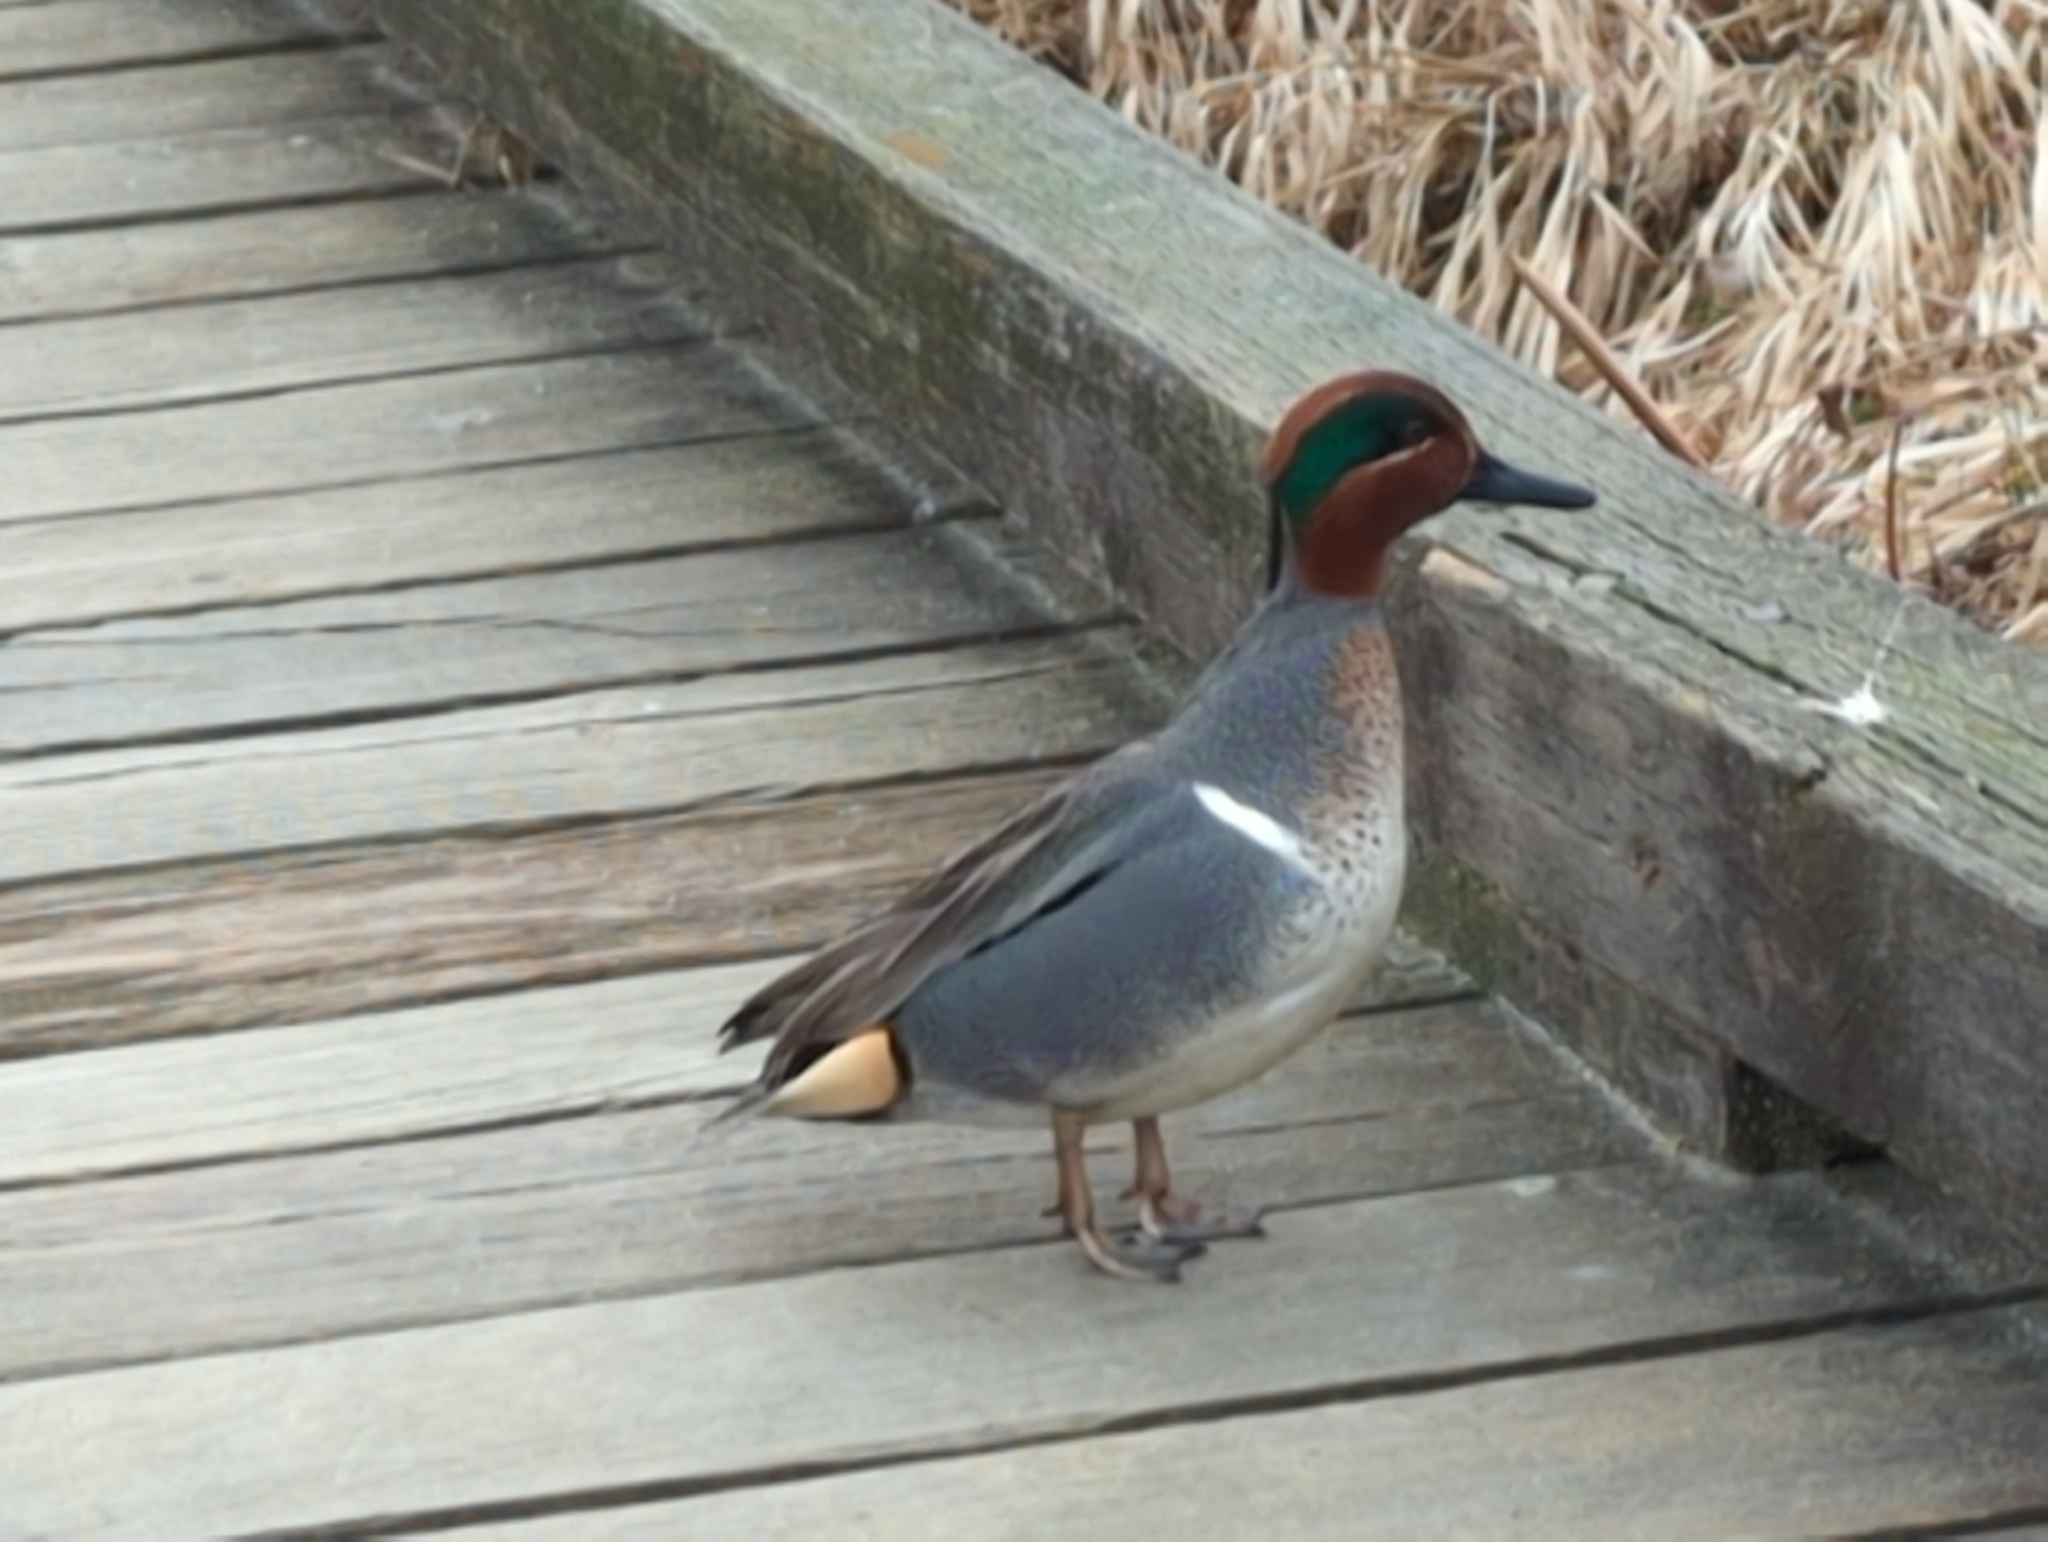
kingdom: Animalia
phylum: Chordata
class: Aves
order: Anseriformes
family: Anatidae
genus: Anas
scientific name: Anas crecca
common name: Eurasian teal
